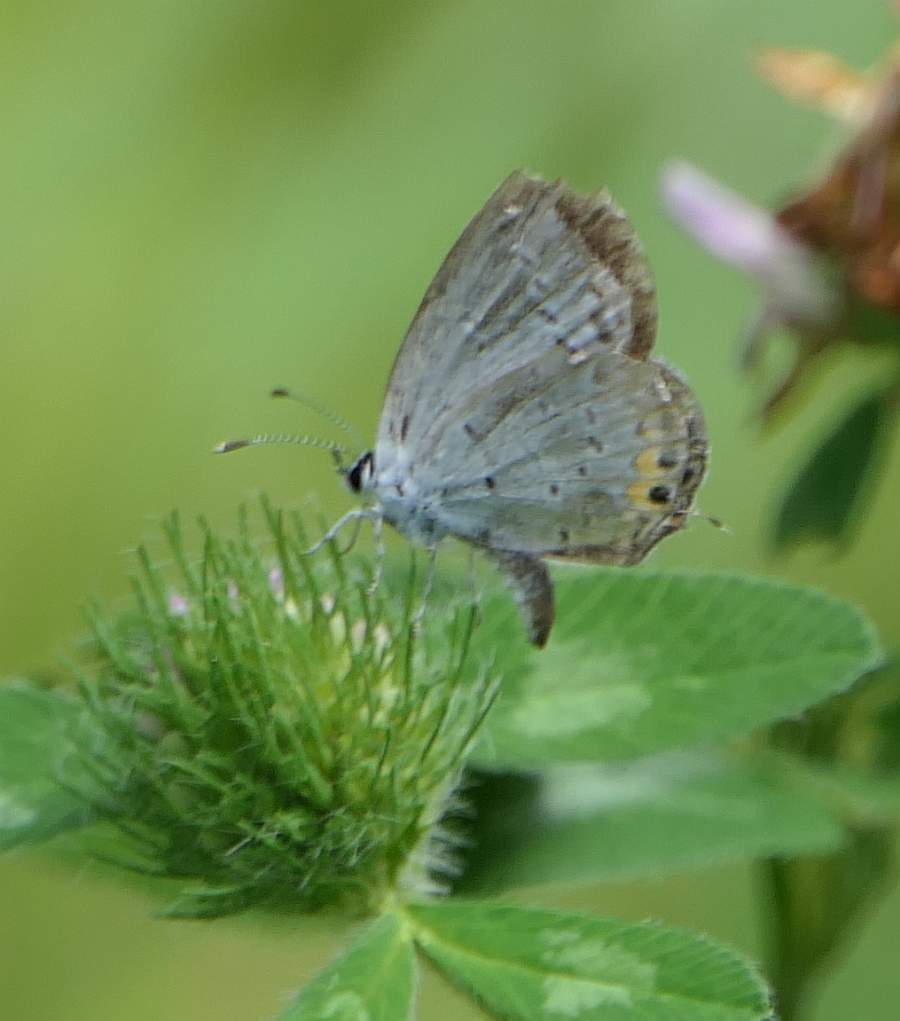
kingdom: Animalia
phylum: Arthropoda
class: Insecta
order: Lepidoptera
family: Lycaenidae
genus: Elkalyce
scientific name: Elkalyce comyntas
